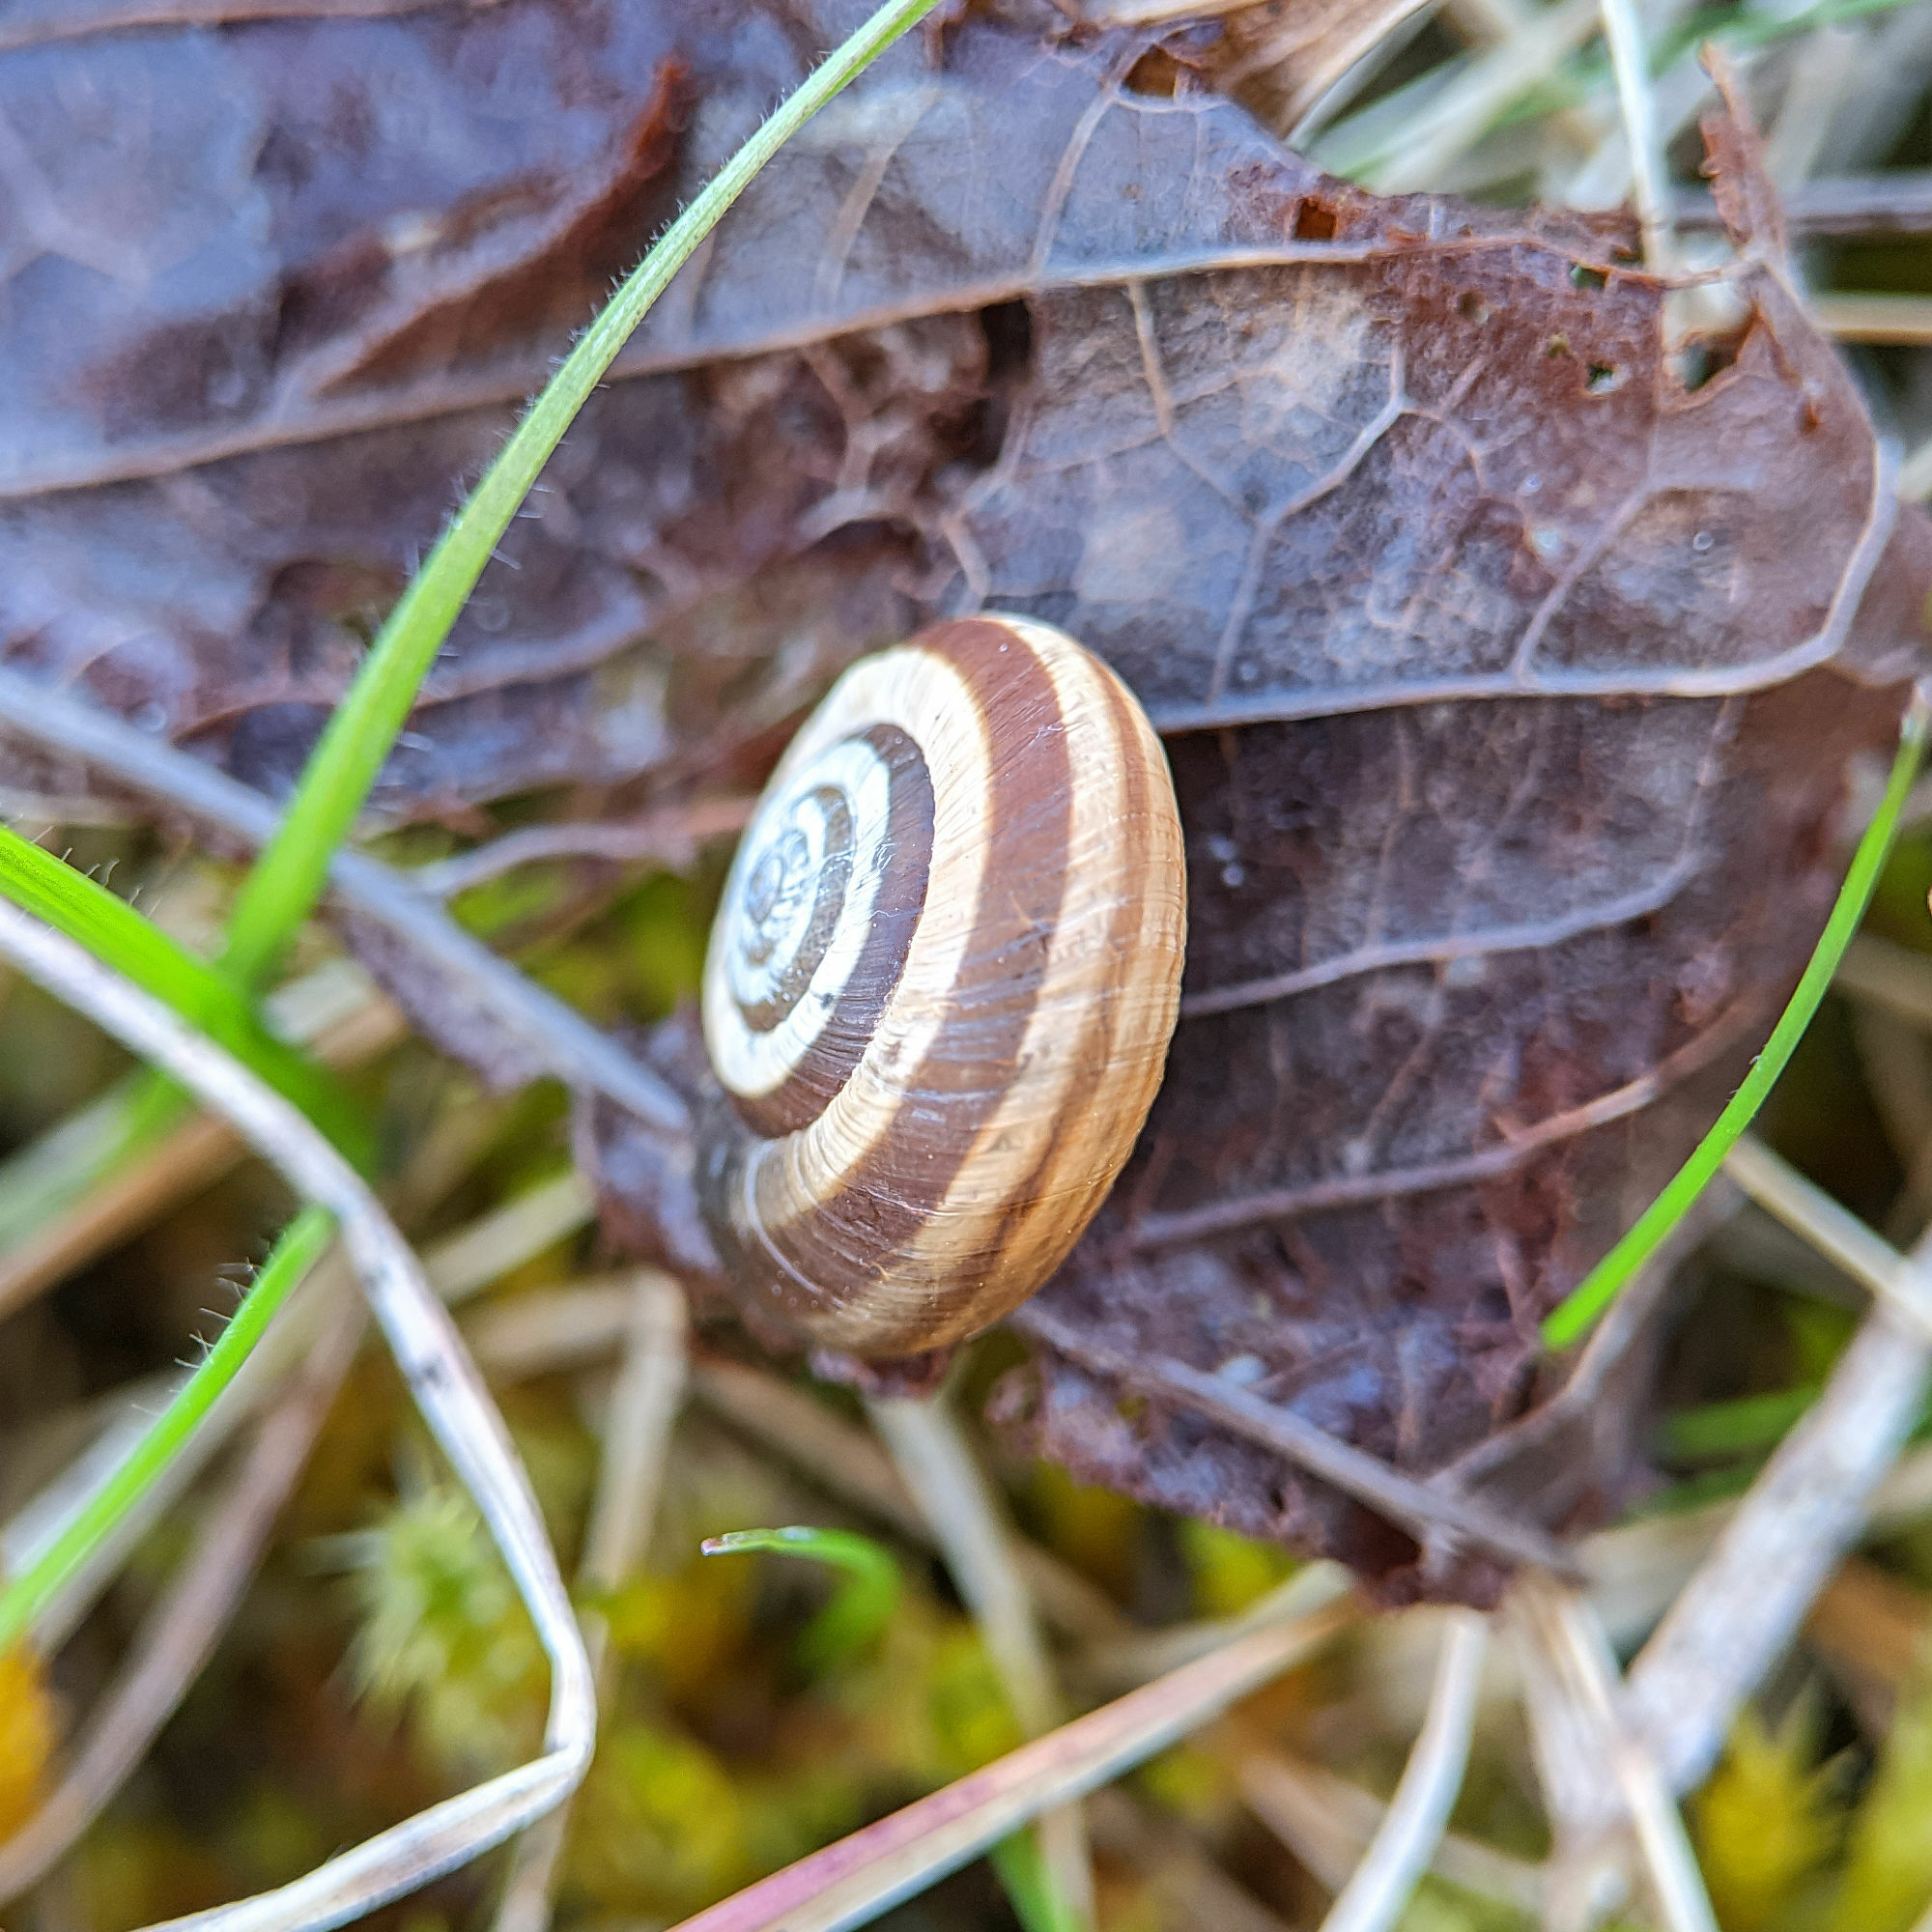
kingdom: Animalia
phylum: Mollusca
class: Gastropoda
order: Stylommatophora
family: Geomitridae
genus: Helicella
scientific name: Helicella itala
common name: Heath snail
